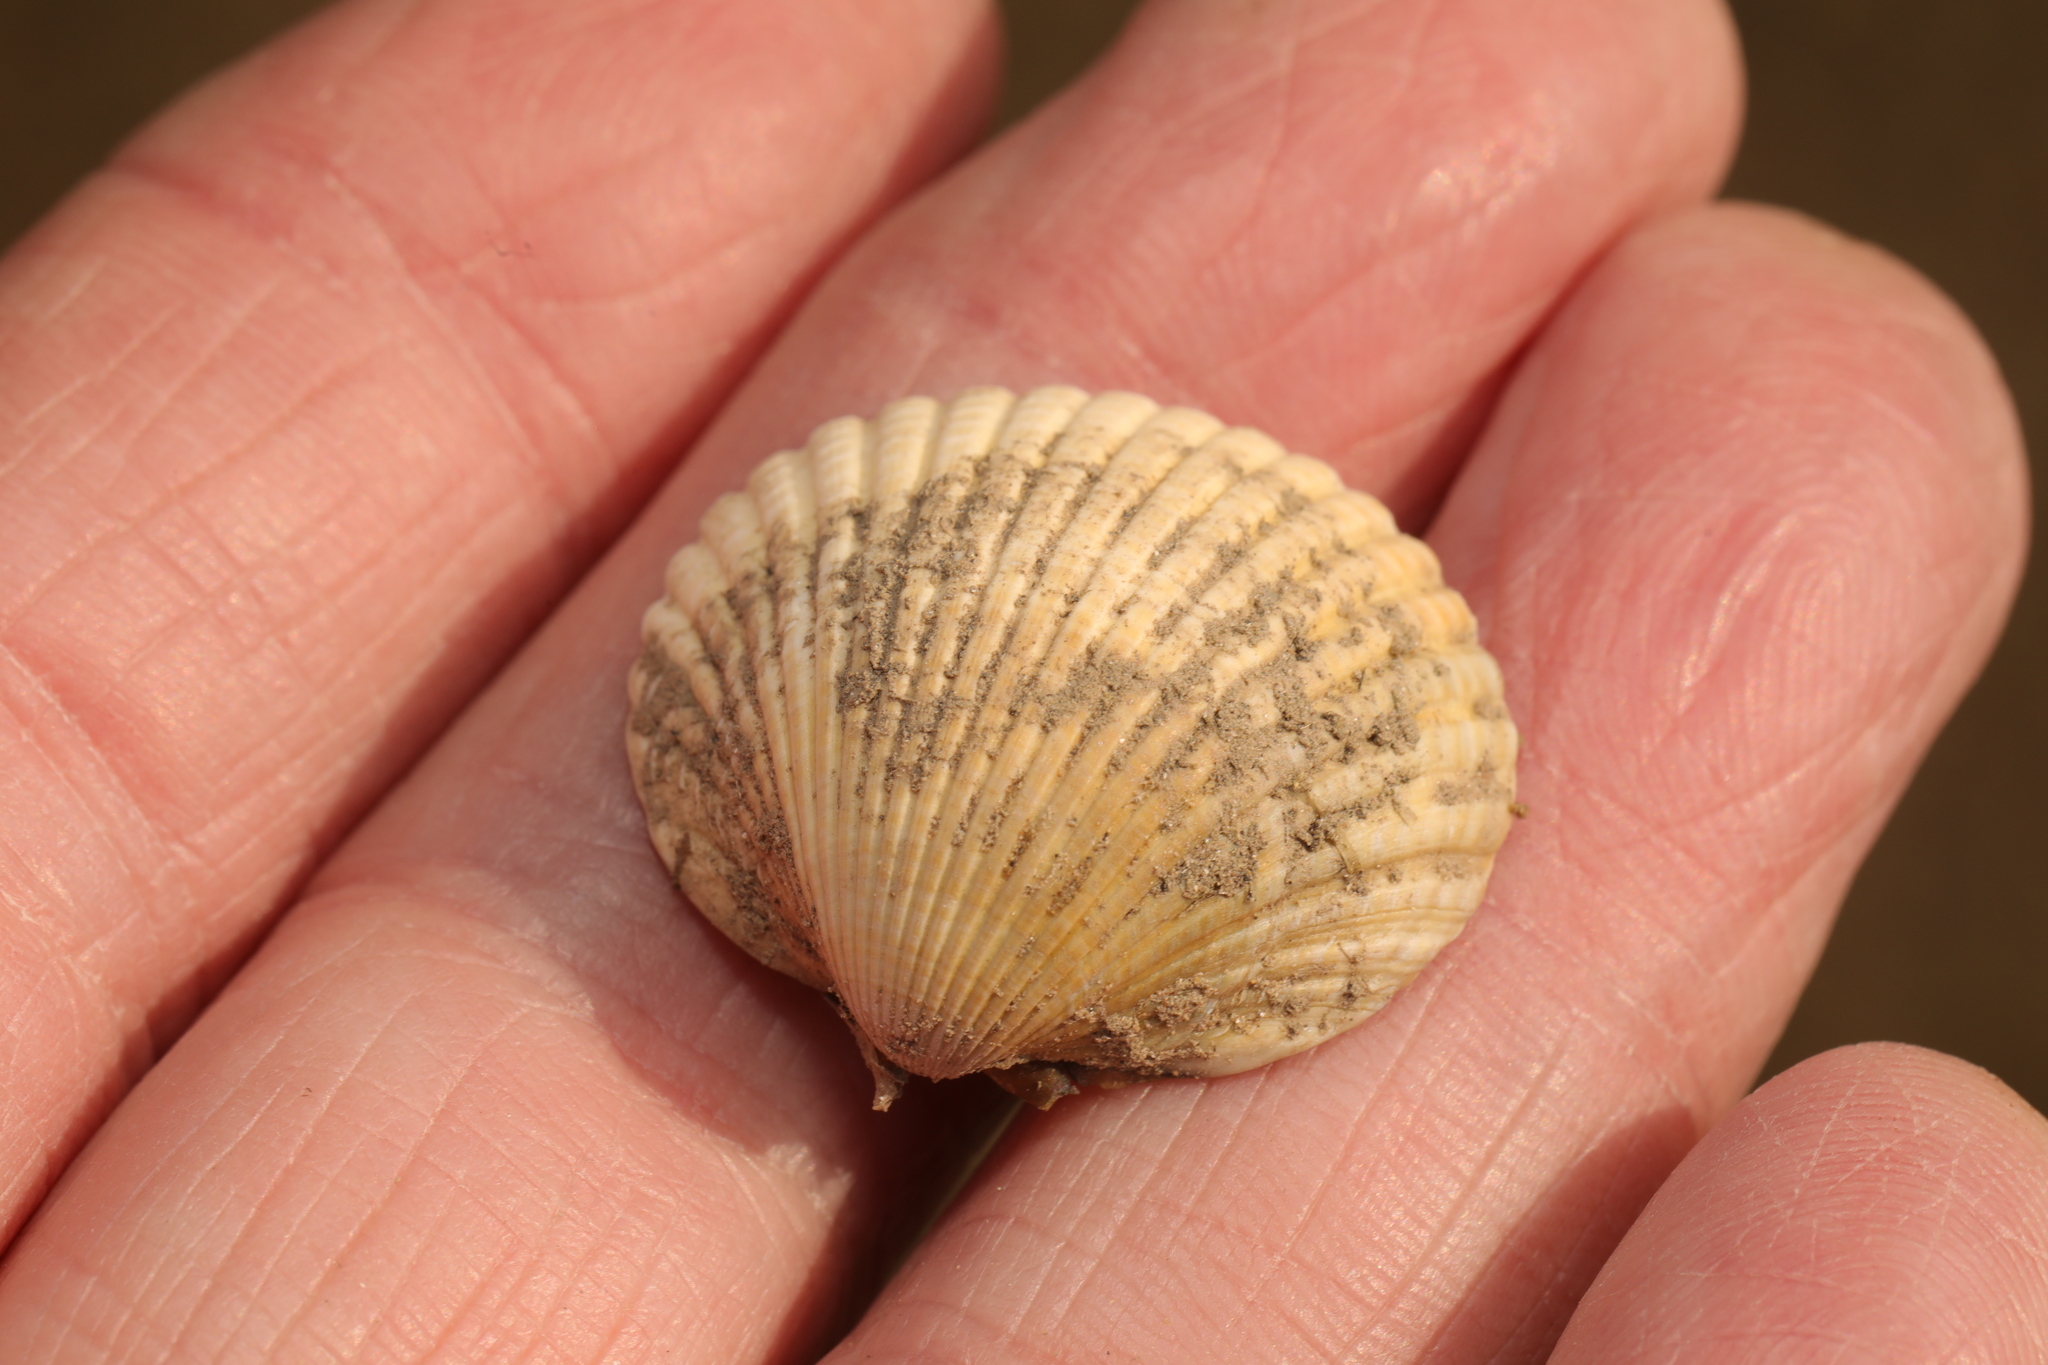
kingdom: Animalia
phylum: Mollusca
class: Bivalvia
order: Cardiida
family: Cardiidae
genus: Cerastoderma
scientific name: Cerastoderma edule
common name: Common cockle
